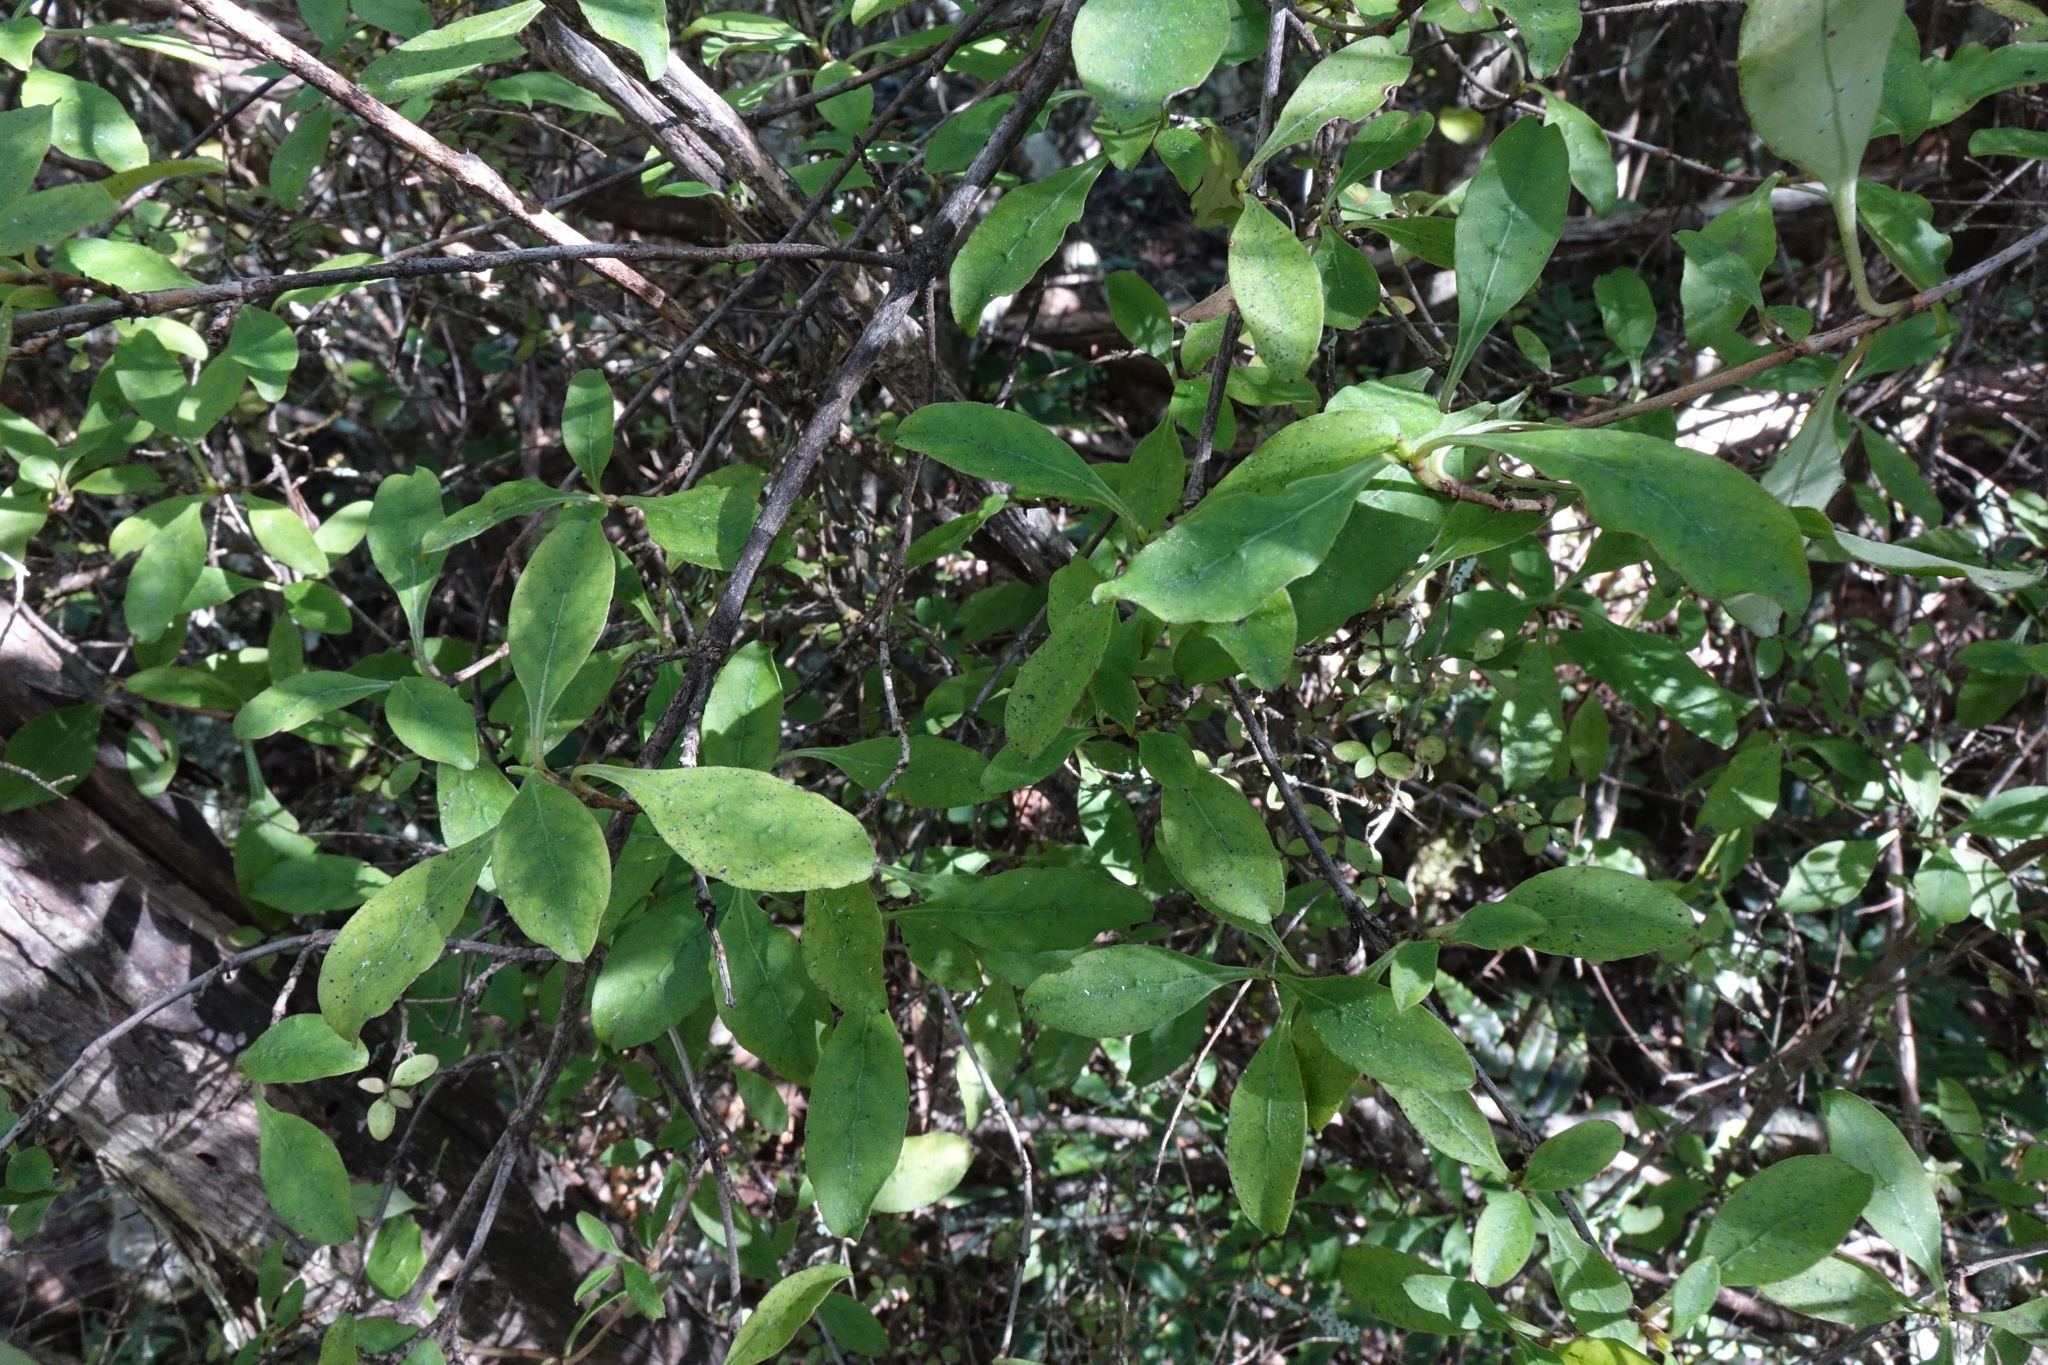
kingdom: Plantae
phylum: Tracheophyta
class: Magnoliopsida
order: Gentianales
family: Rubiaceae
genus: Coprosma
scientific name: Coprosma foetidissima
